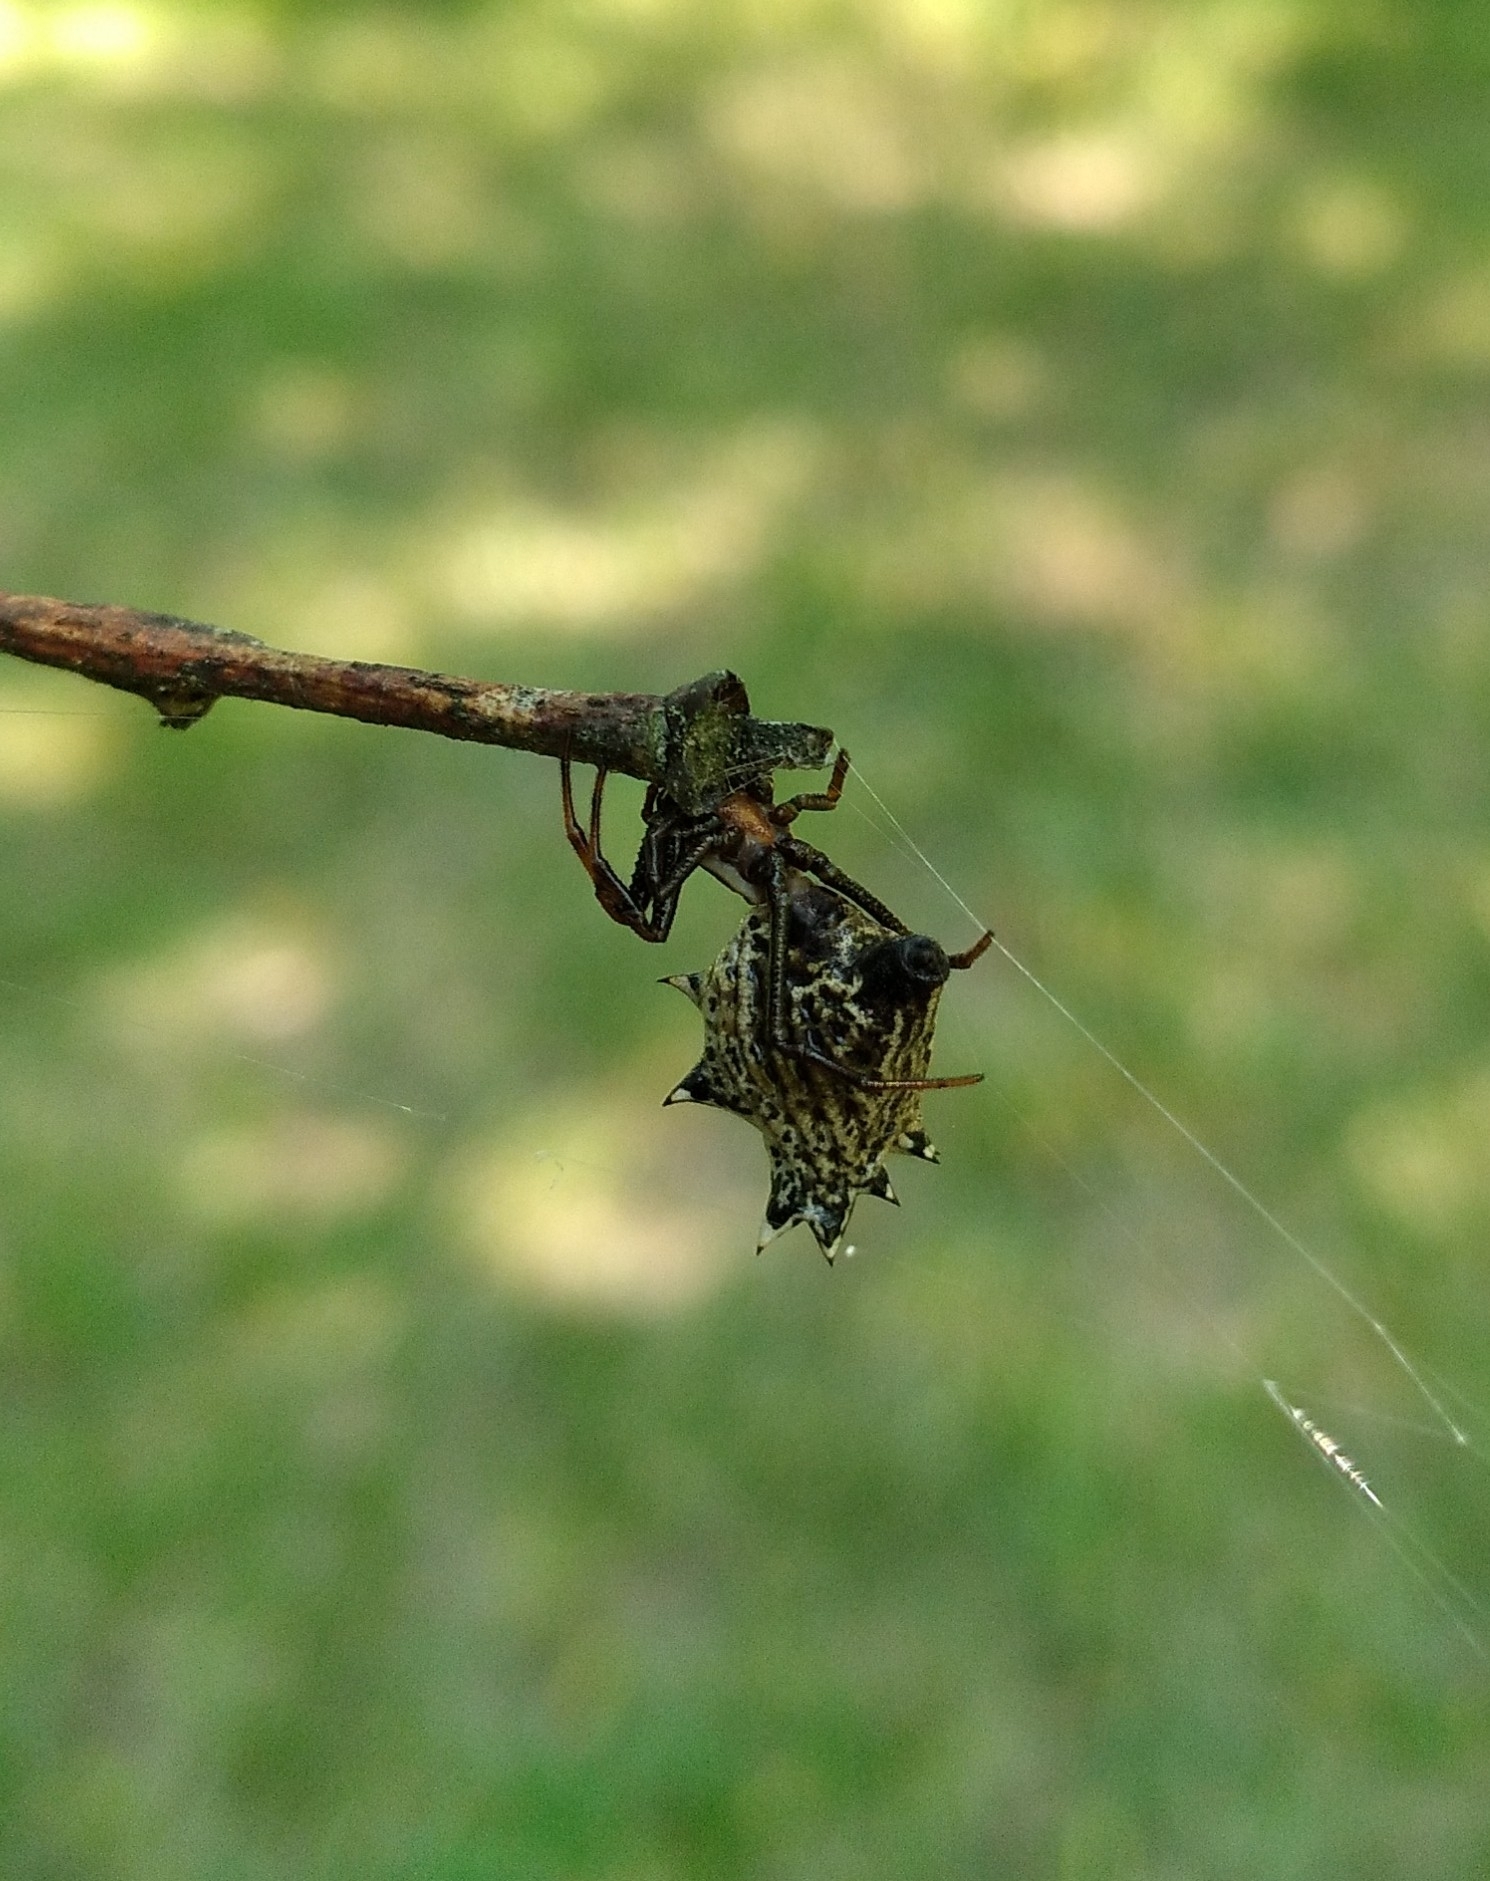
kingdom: Animalia
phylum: Arthropoda
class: Arachnida
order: Araneae
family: Araneidae
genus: Micrathena
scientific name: Micrathena gracilis
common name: Orb weavers
